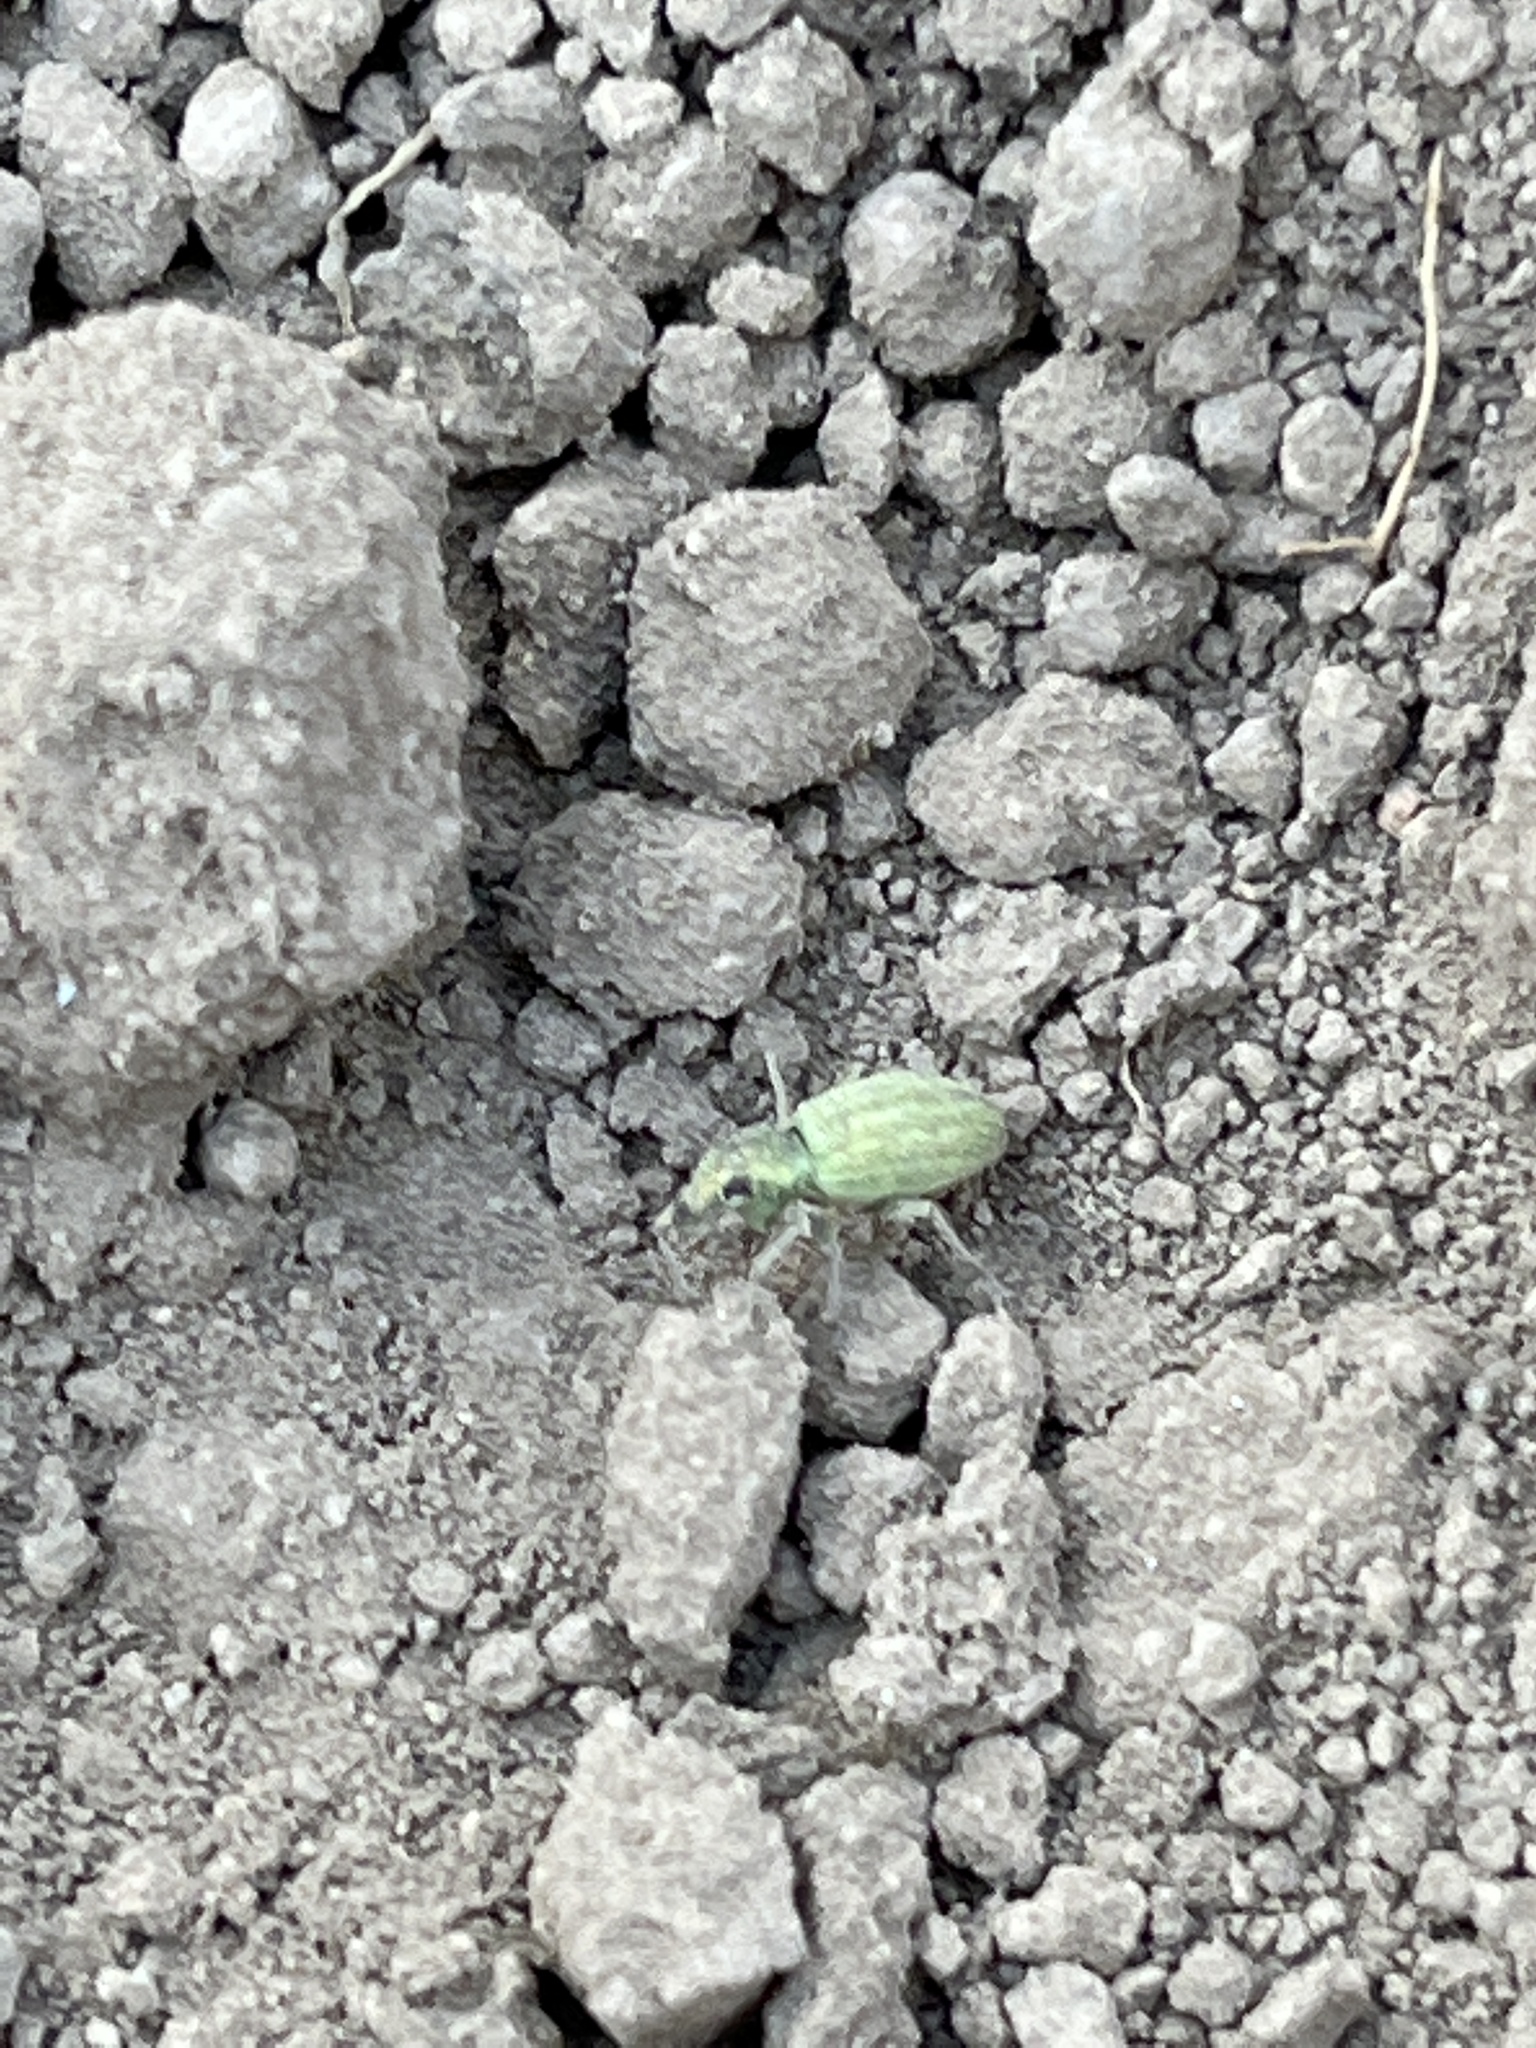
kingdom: Animalia
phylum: Arthropoda
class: Insecta
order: Coleoptera
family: Curculionidae
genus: Eusomus
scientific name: Eusomus ovulum
